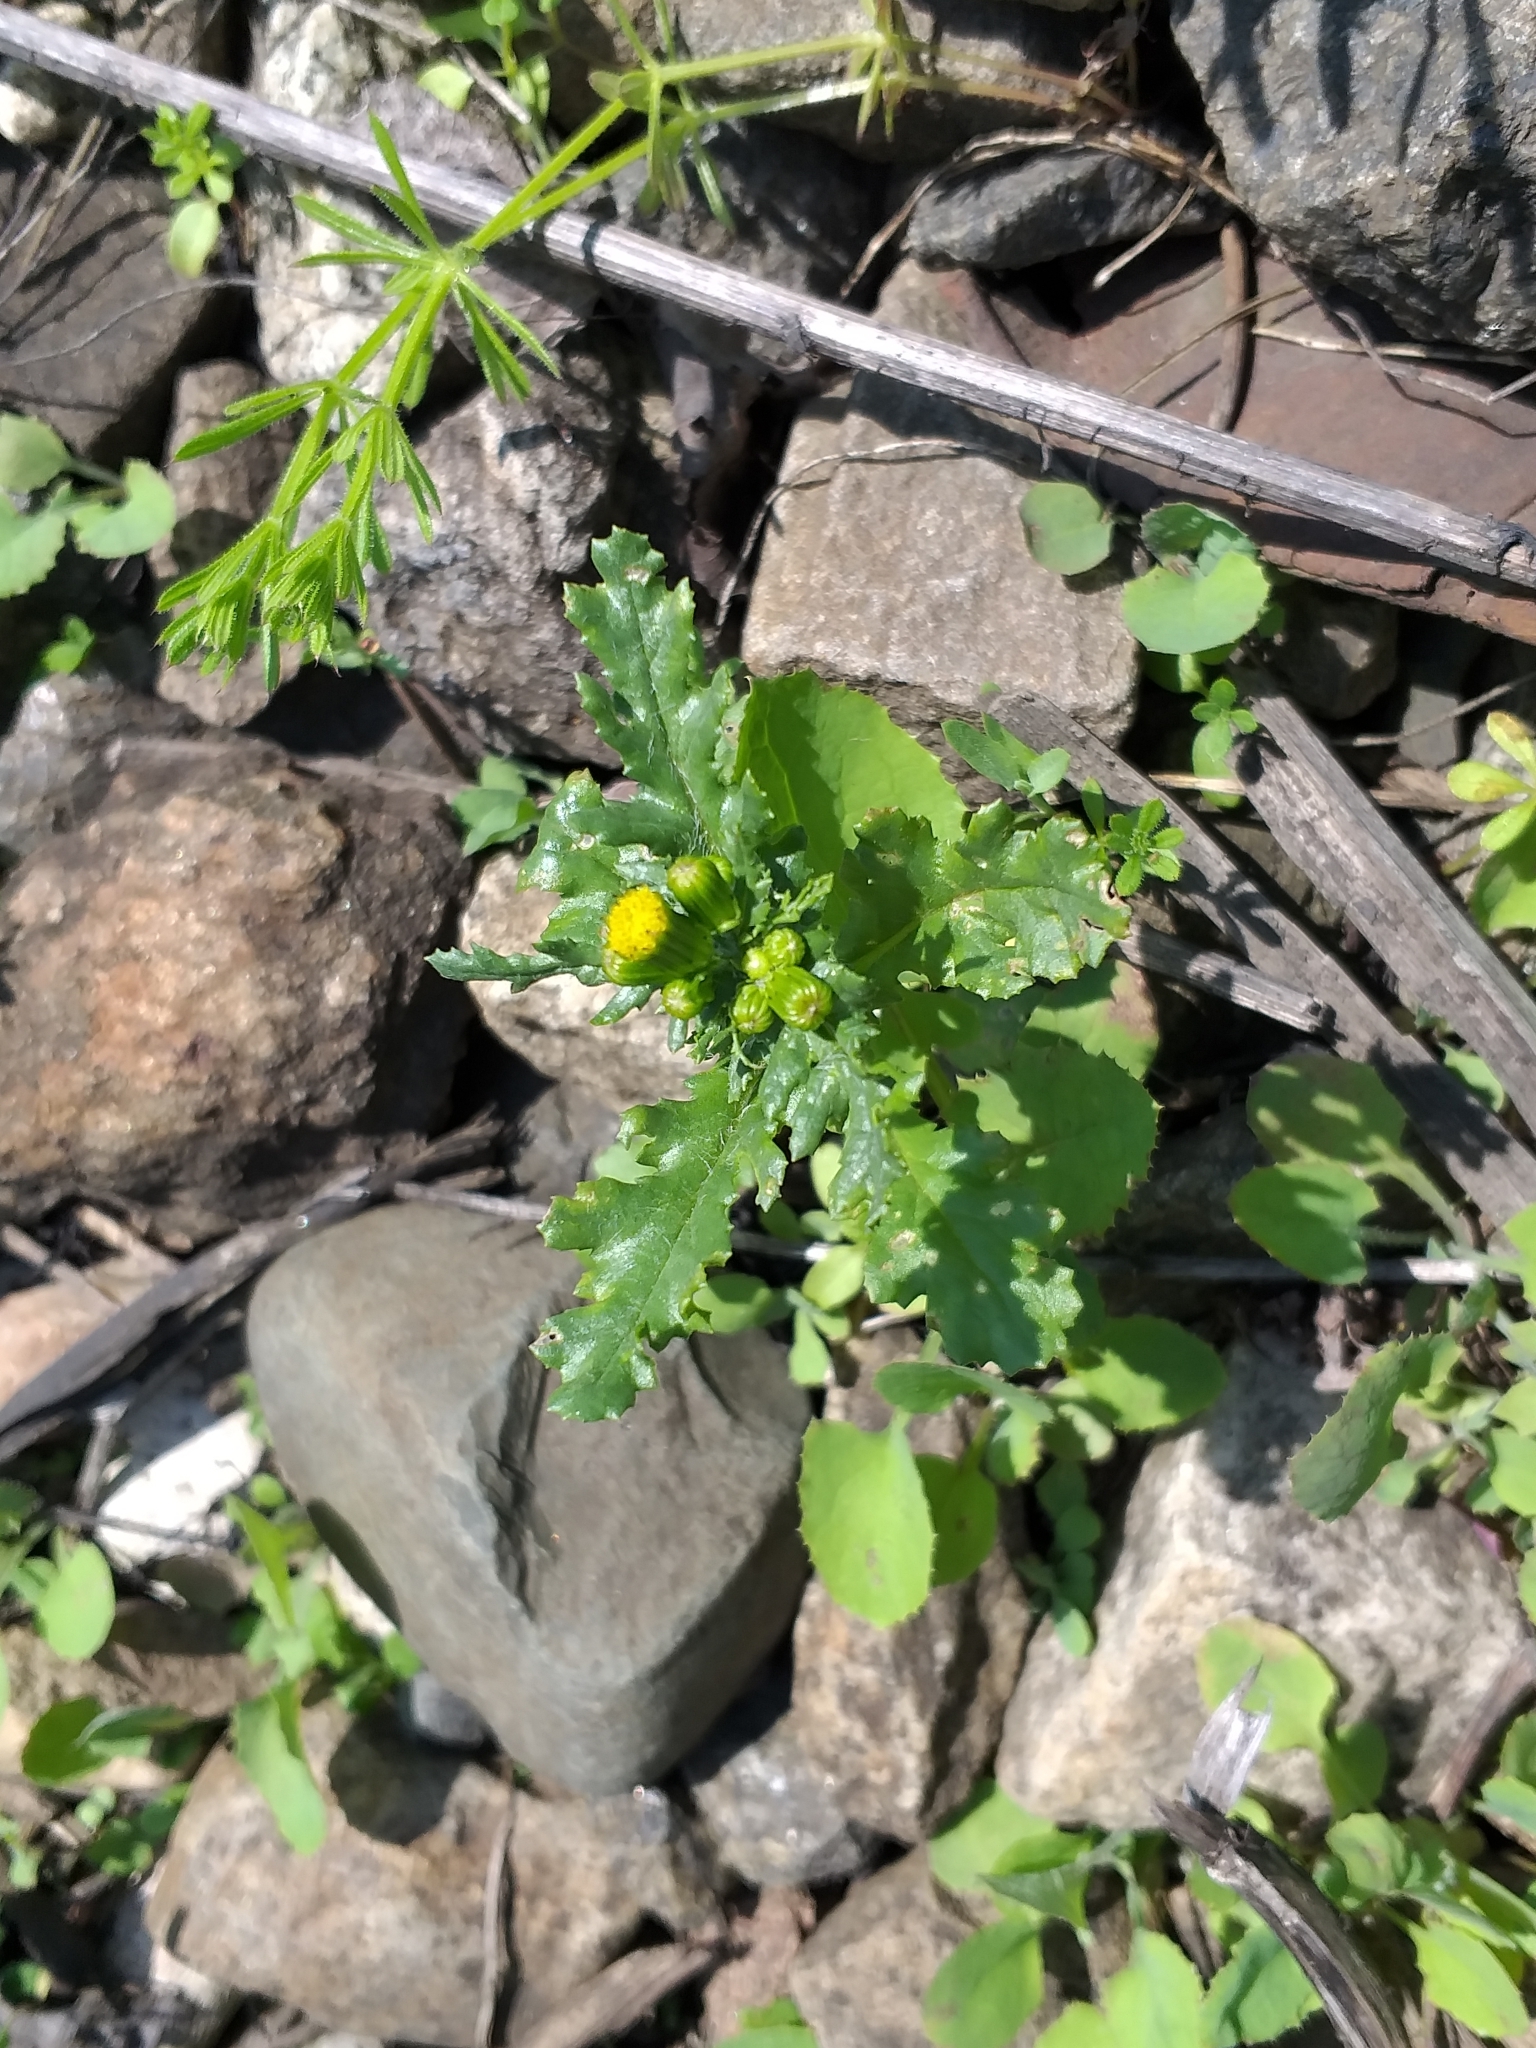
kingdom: Plantae
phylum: Tracheophyta
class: Magnoliopsida
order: Asterales
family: Asteraceae
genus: Senecio
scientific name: Senecio vulgaris
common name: Old-man-in-the-spring
